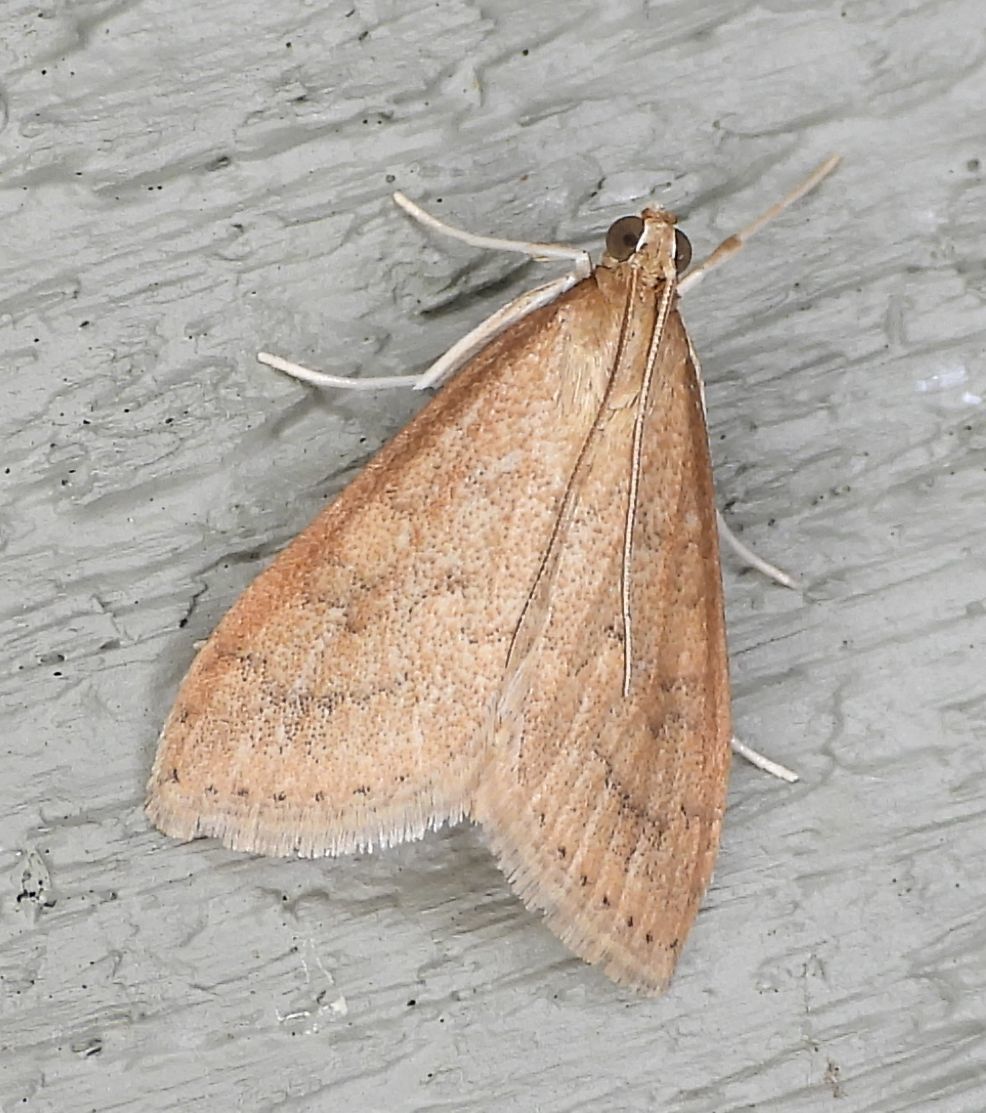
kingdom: Animalia
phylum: Arthropoda
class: Insecta
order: Lepidoptera
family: Crambidae
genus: Udea
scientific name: Udea rubigalis
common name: Celery leaftier moth
